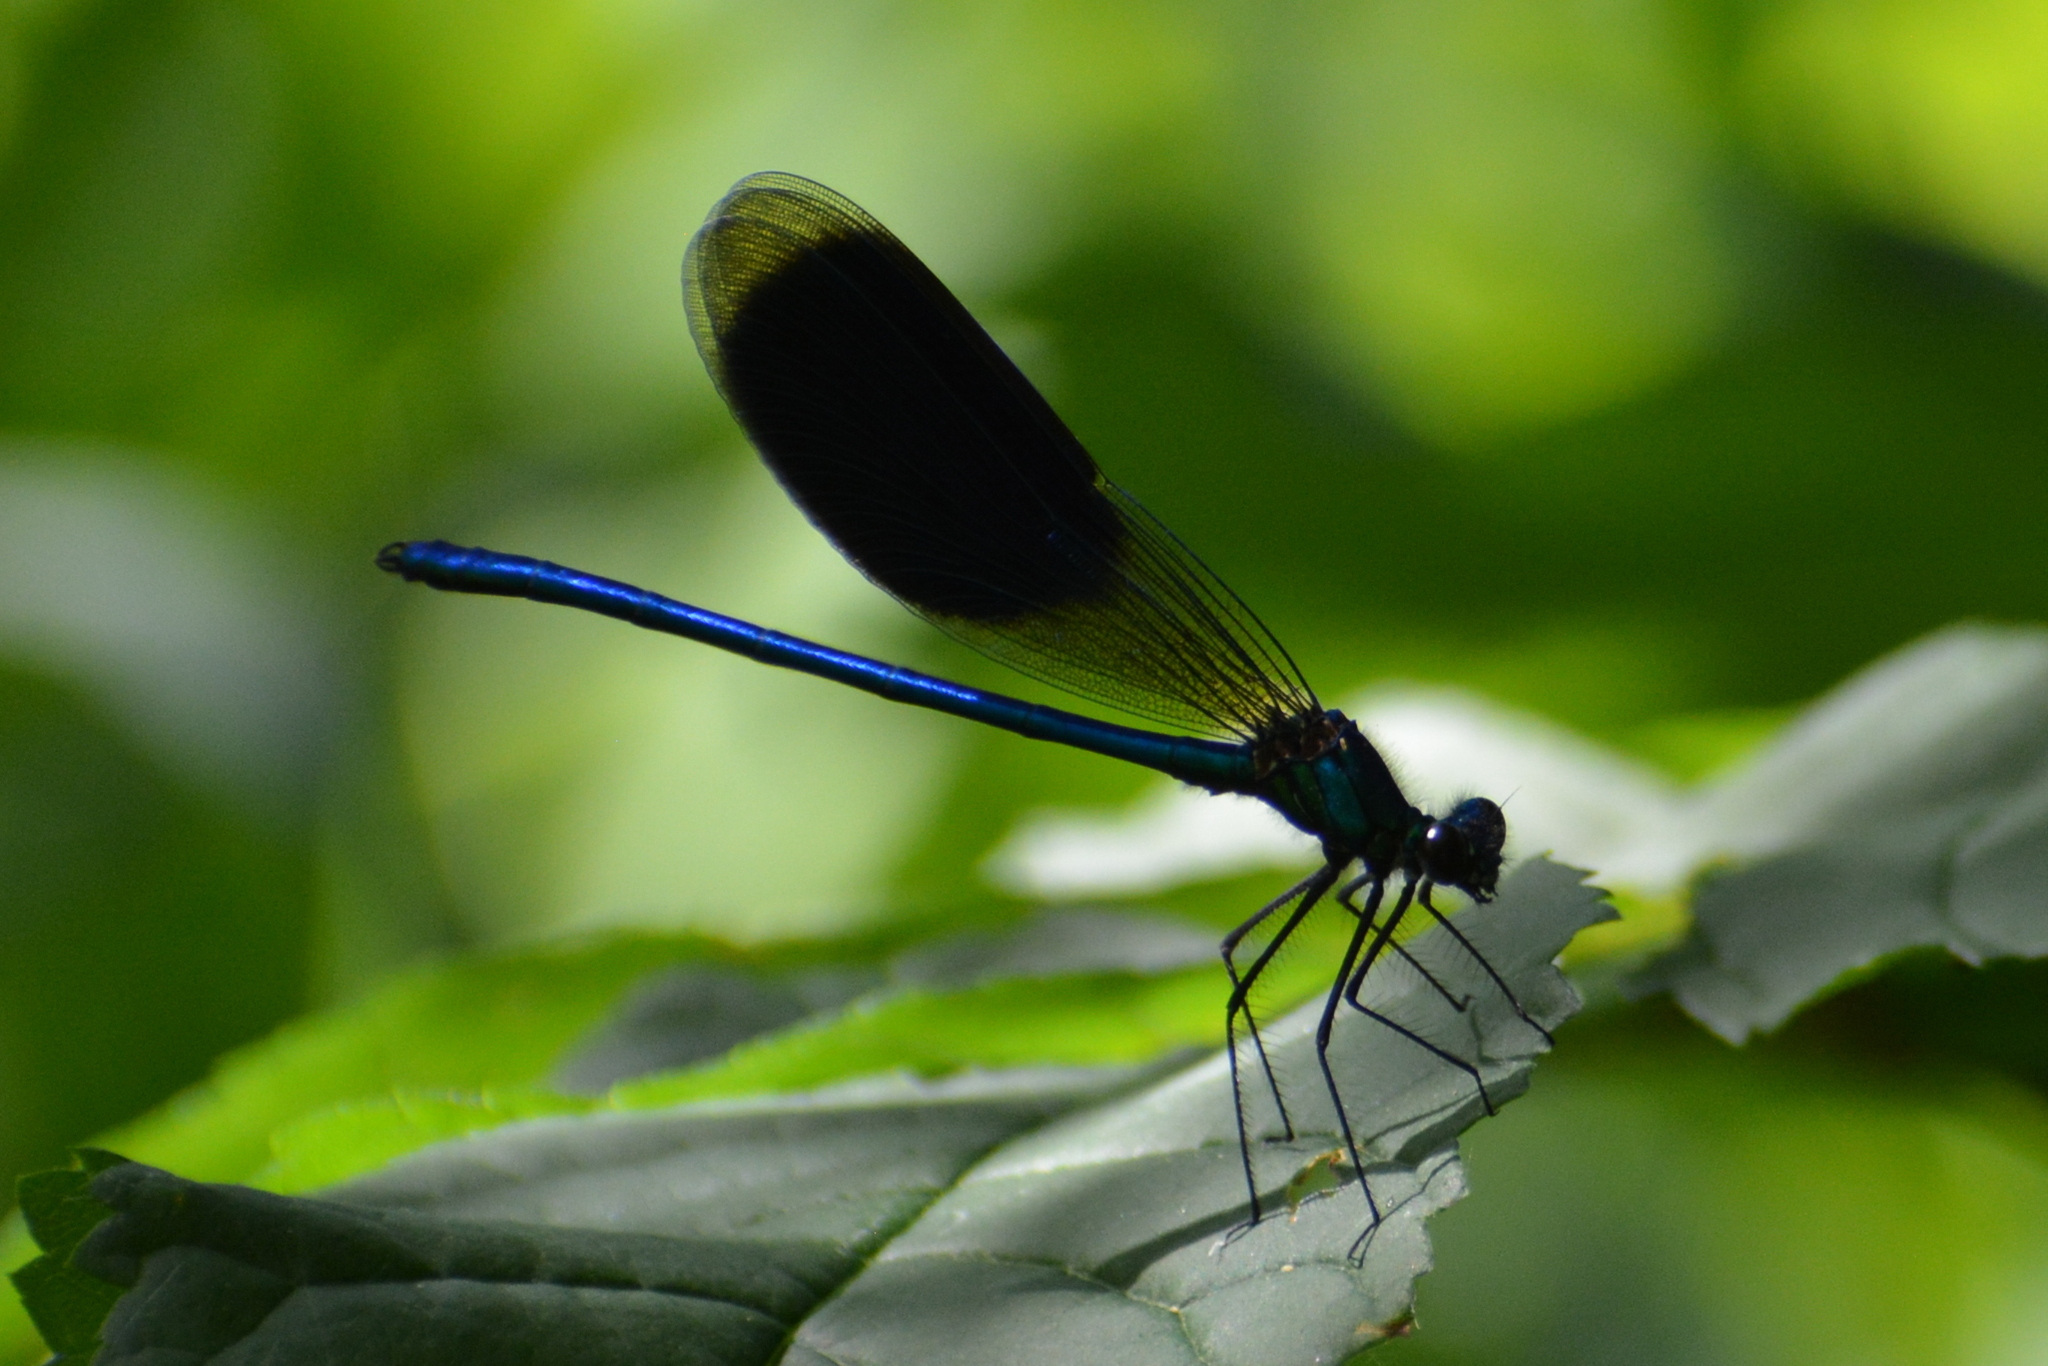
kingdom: Animalia
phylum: Arthropoda
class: Insecta
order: Odonata
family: Calopterygidae
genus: Calopteryx
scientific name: Calopteryx splendens
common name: Banded demoiselle
